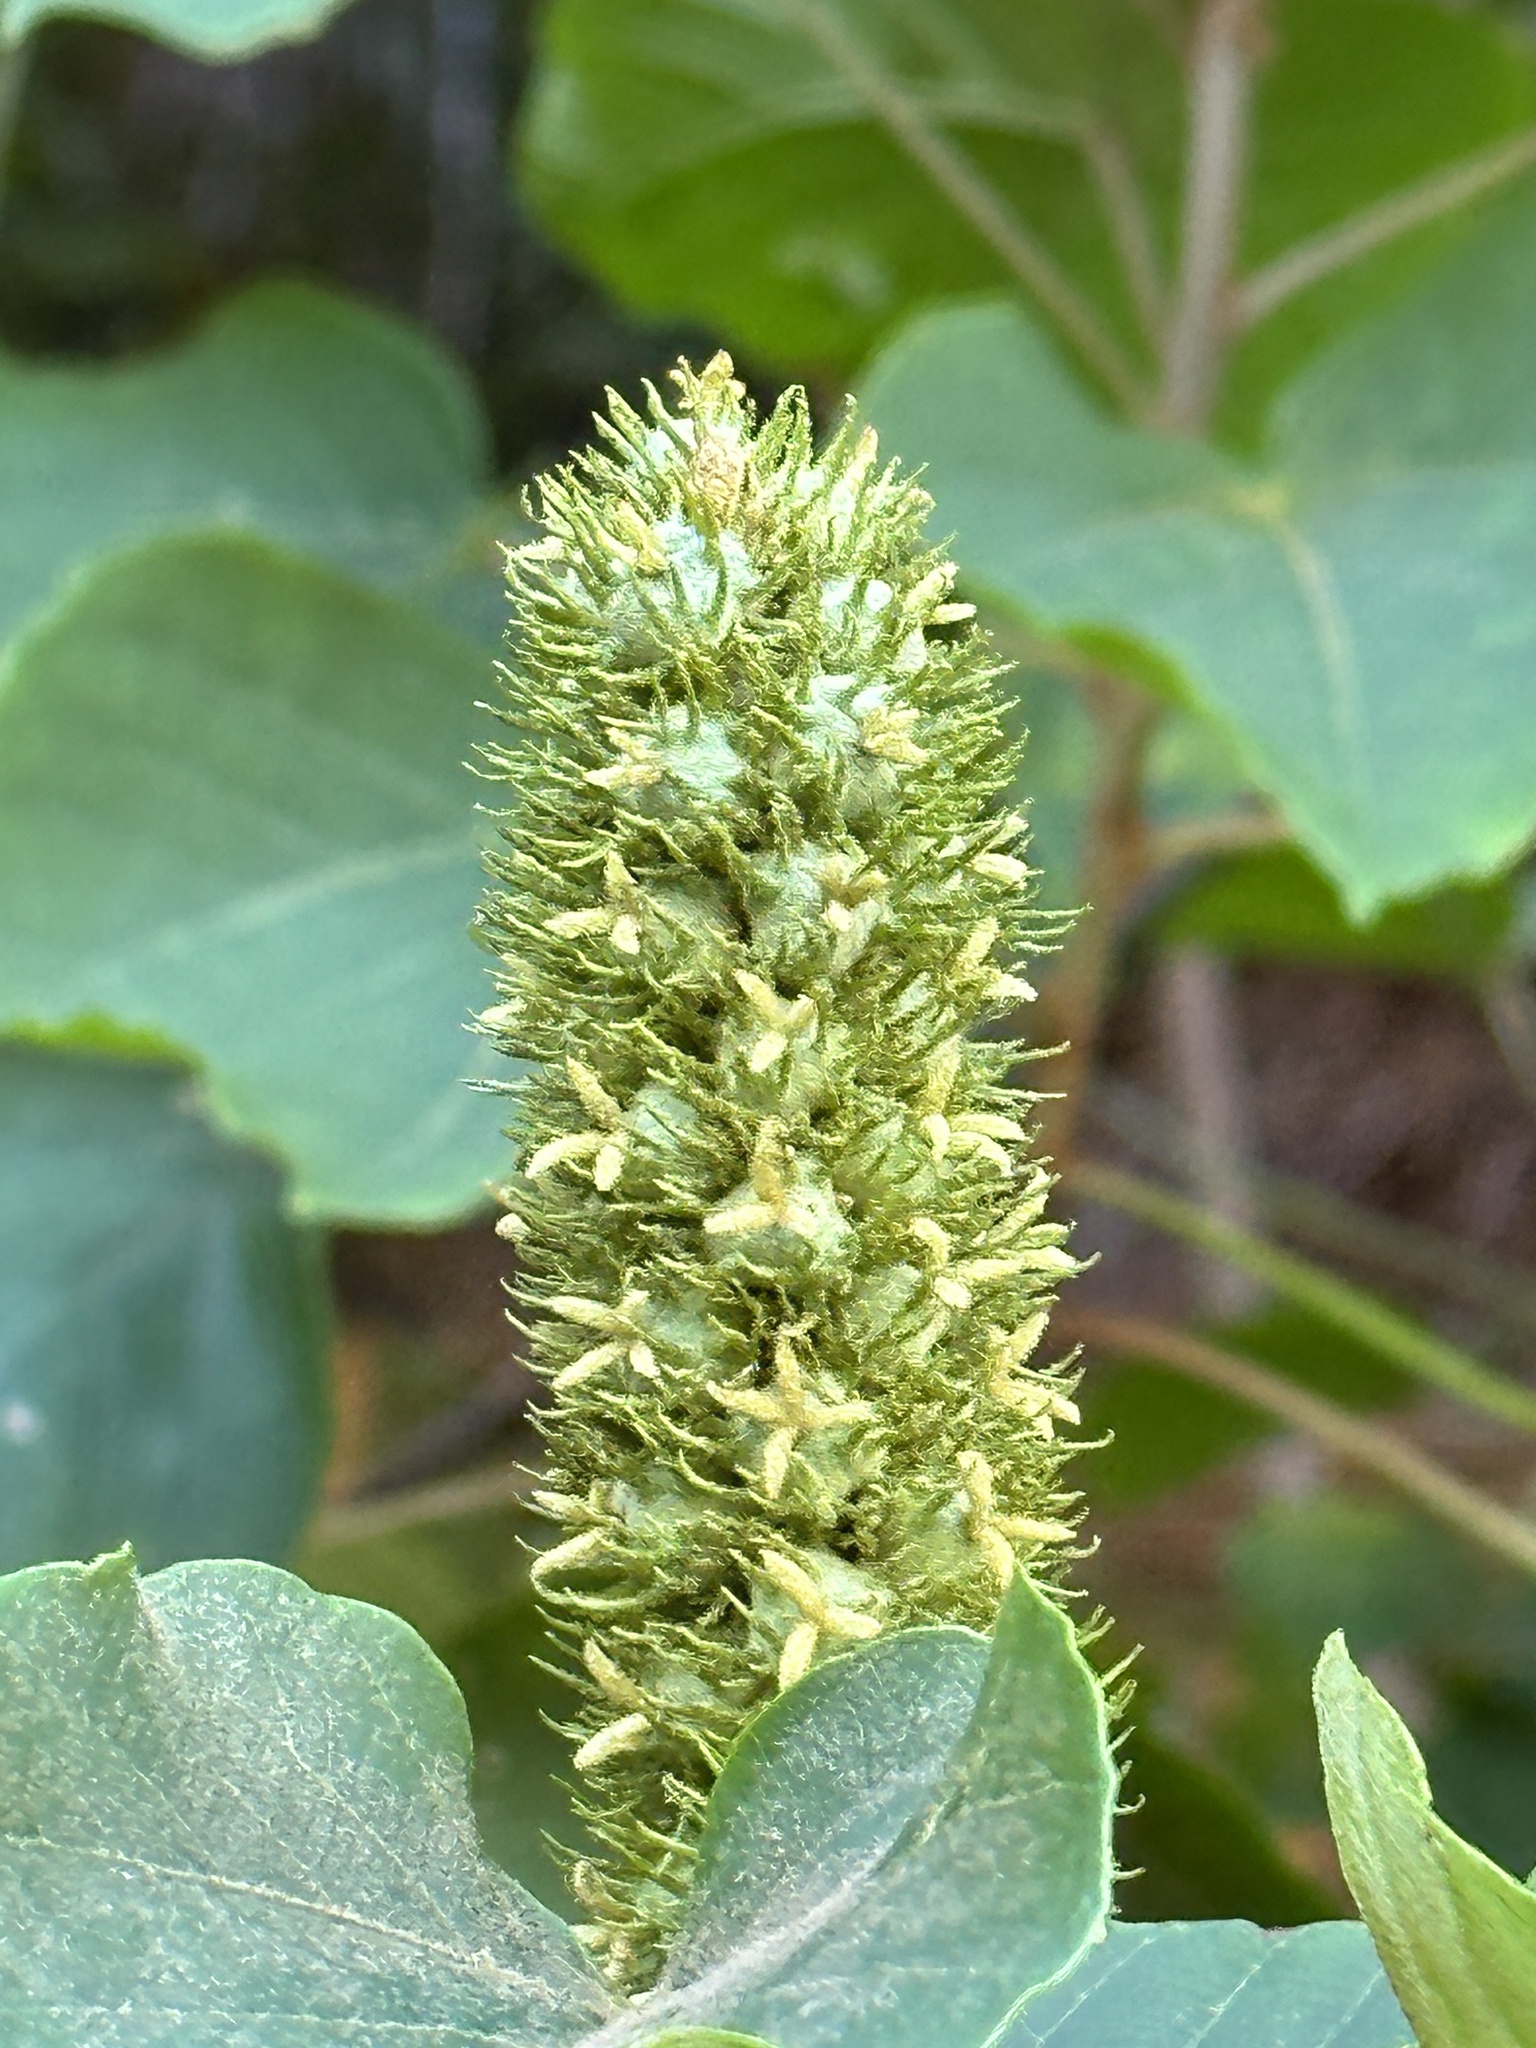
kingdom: Plantae
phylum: Tracheophyta
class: Magnoliopsida
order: Malpighiales
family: Euphorbiaceae
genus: Mallotus
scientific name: Mallotus japonicus
